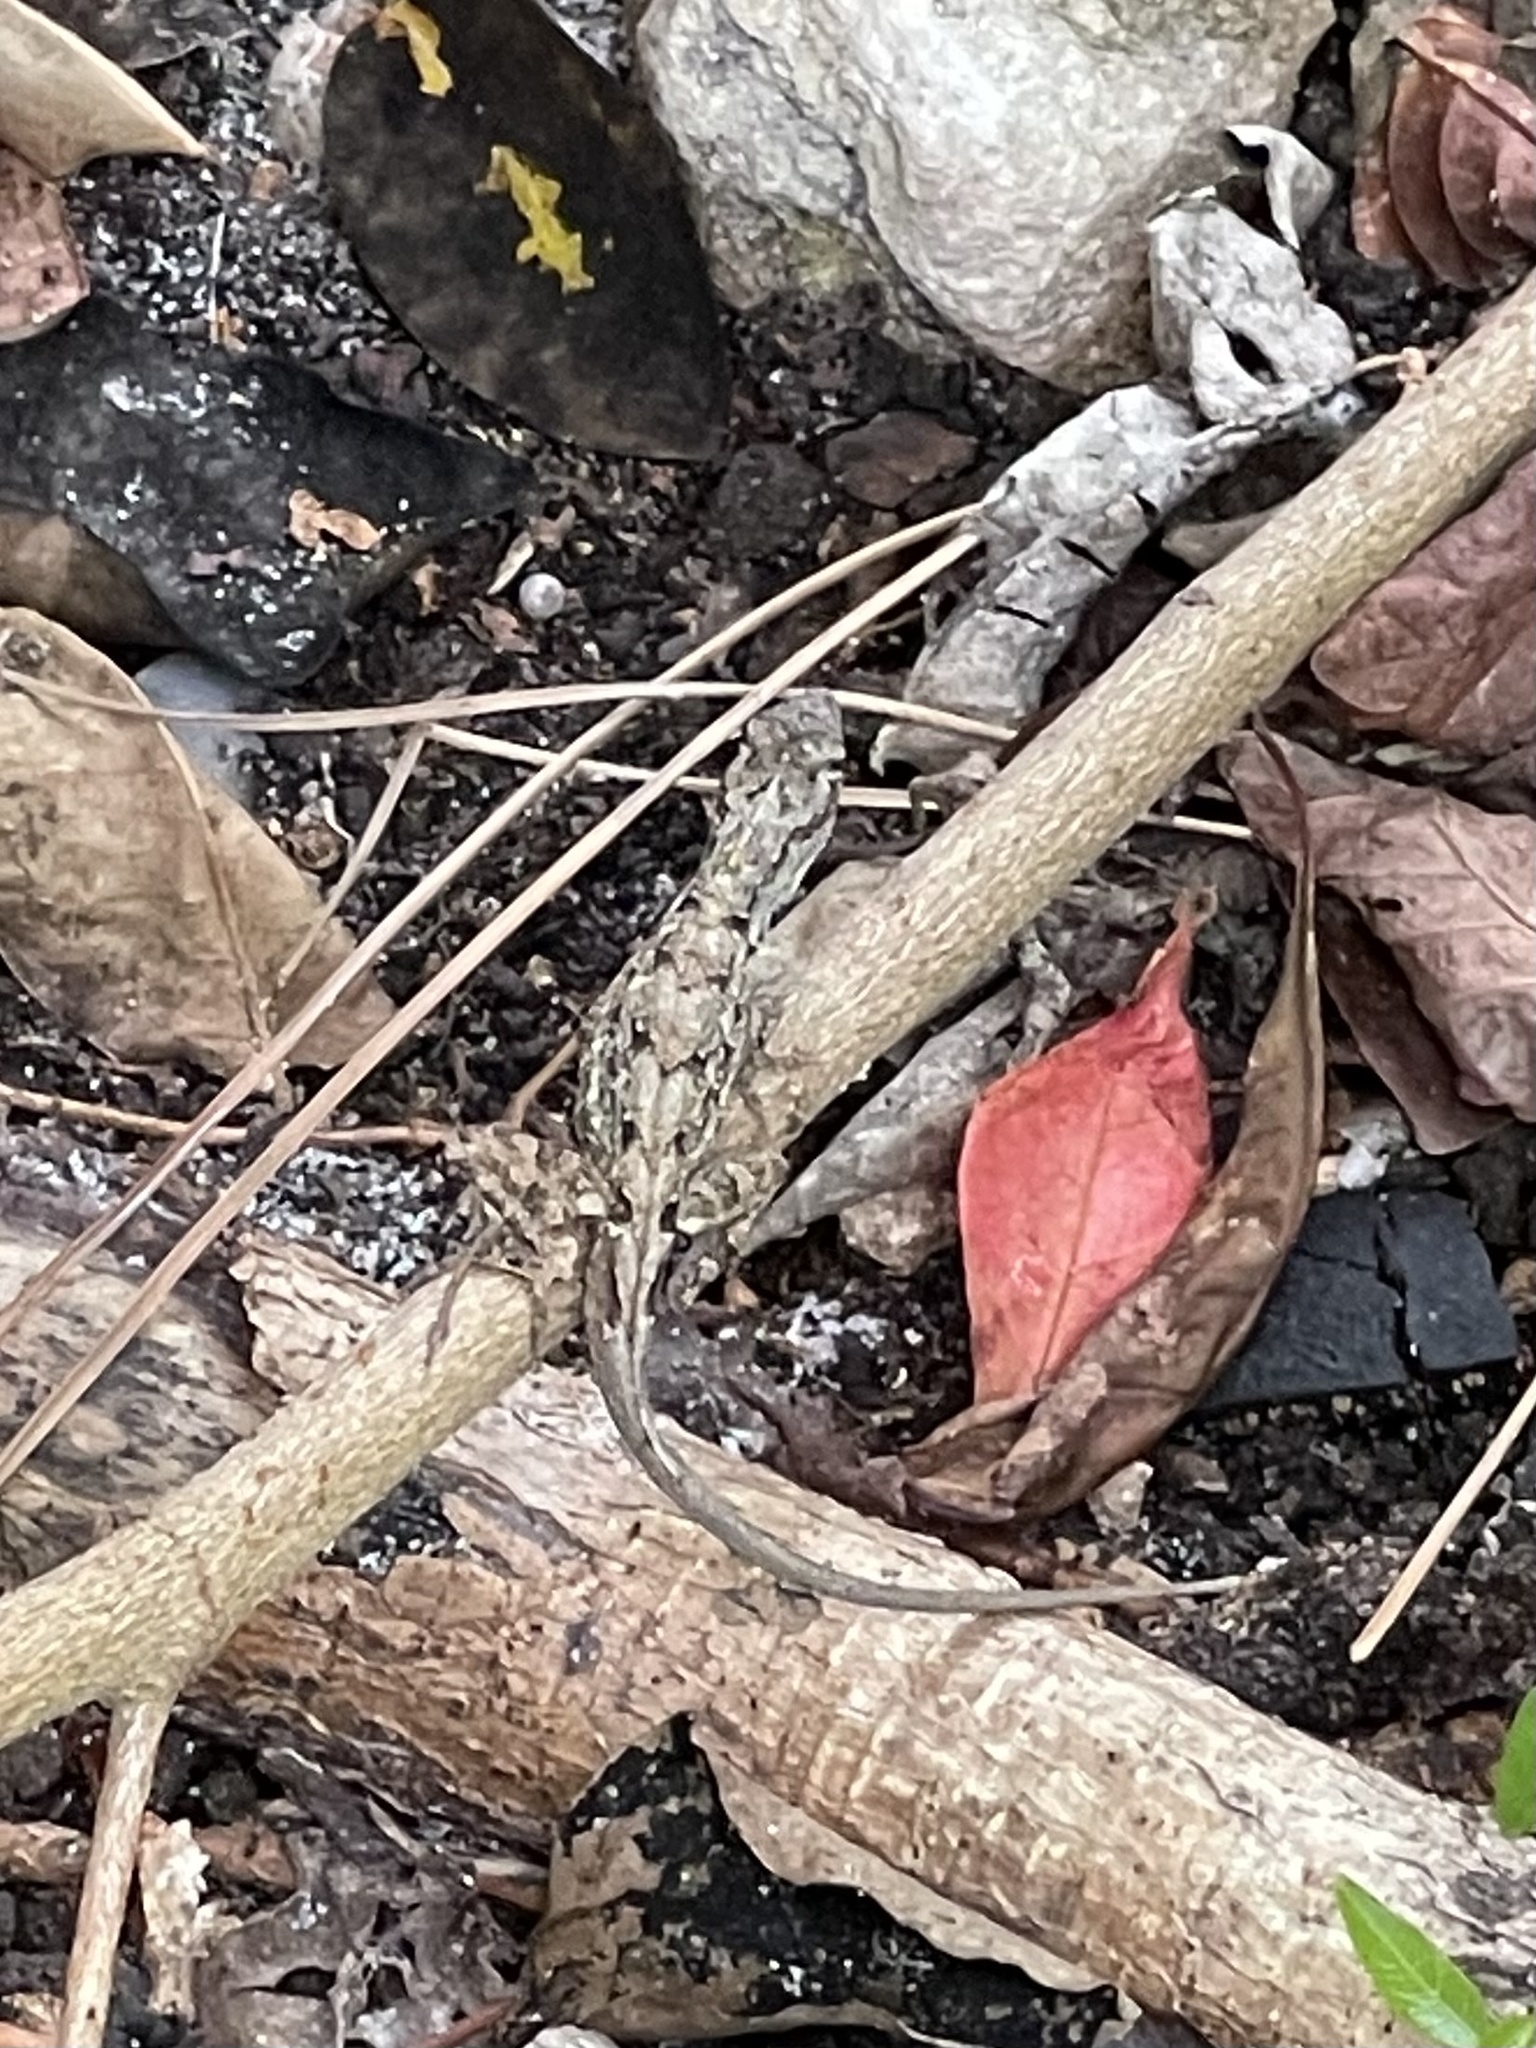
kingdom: Animalia
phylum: Chordata
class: Squamata
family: Dactyloidae
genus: Anolis
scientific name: Anolis sagrei
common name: Brown anole
